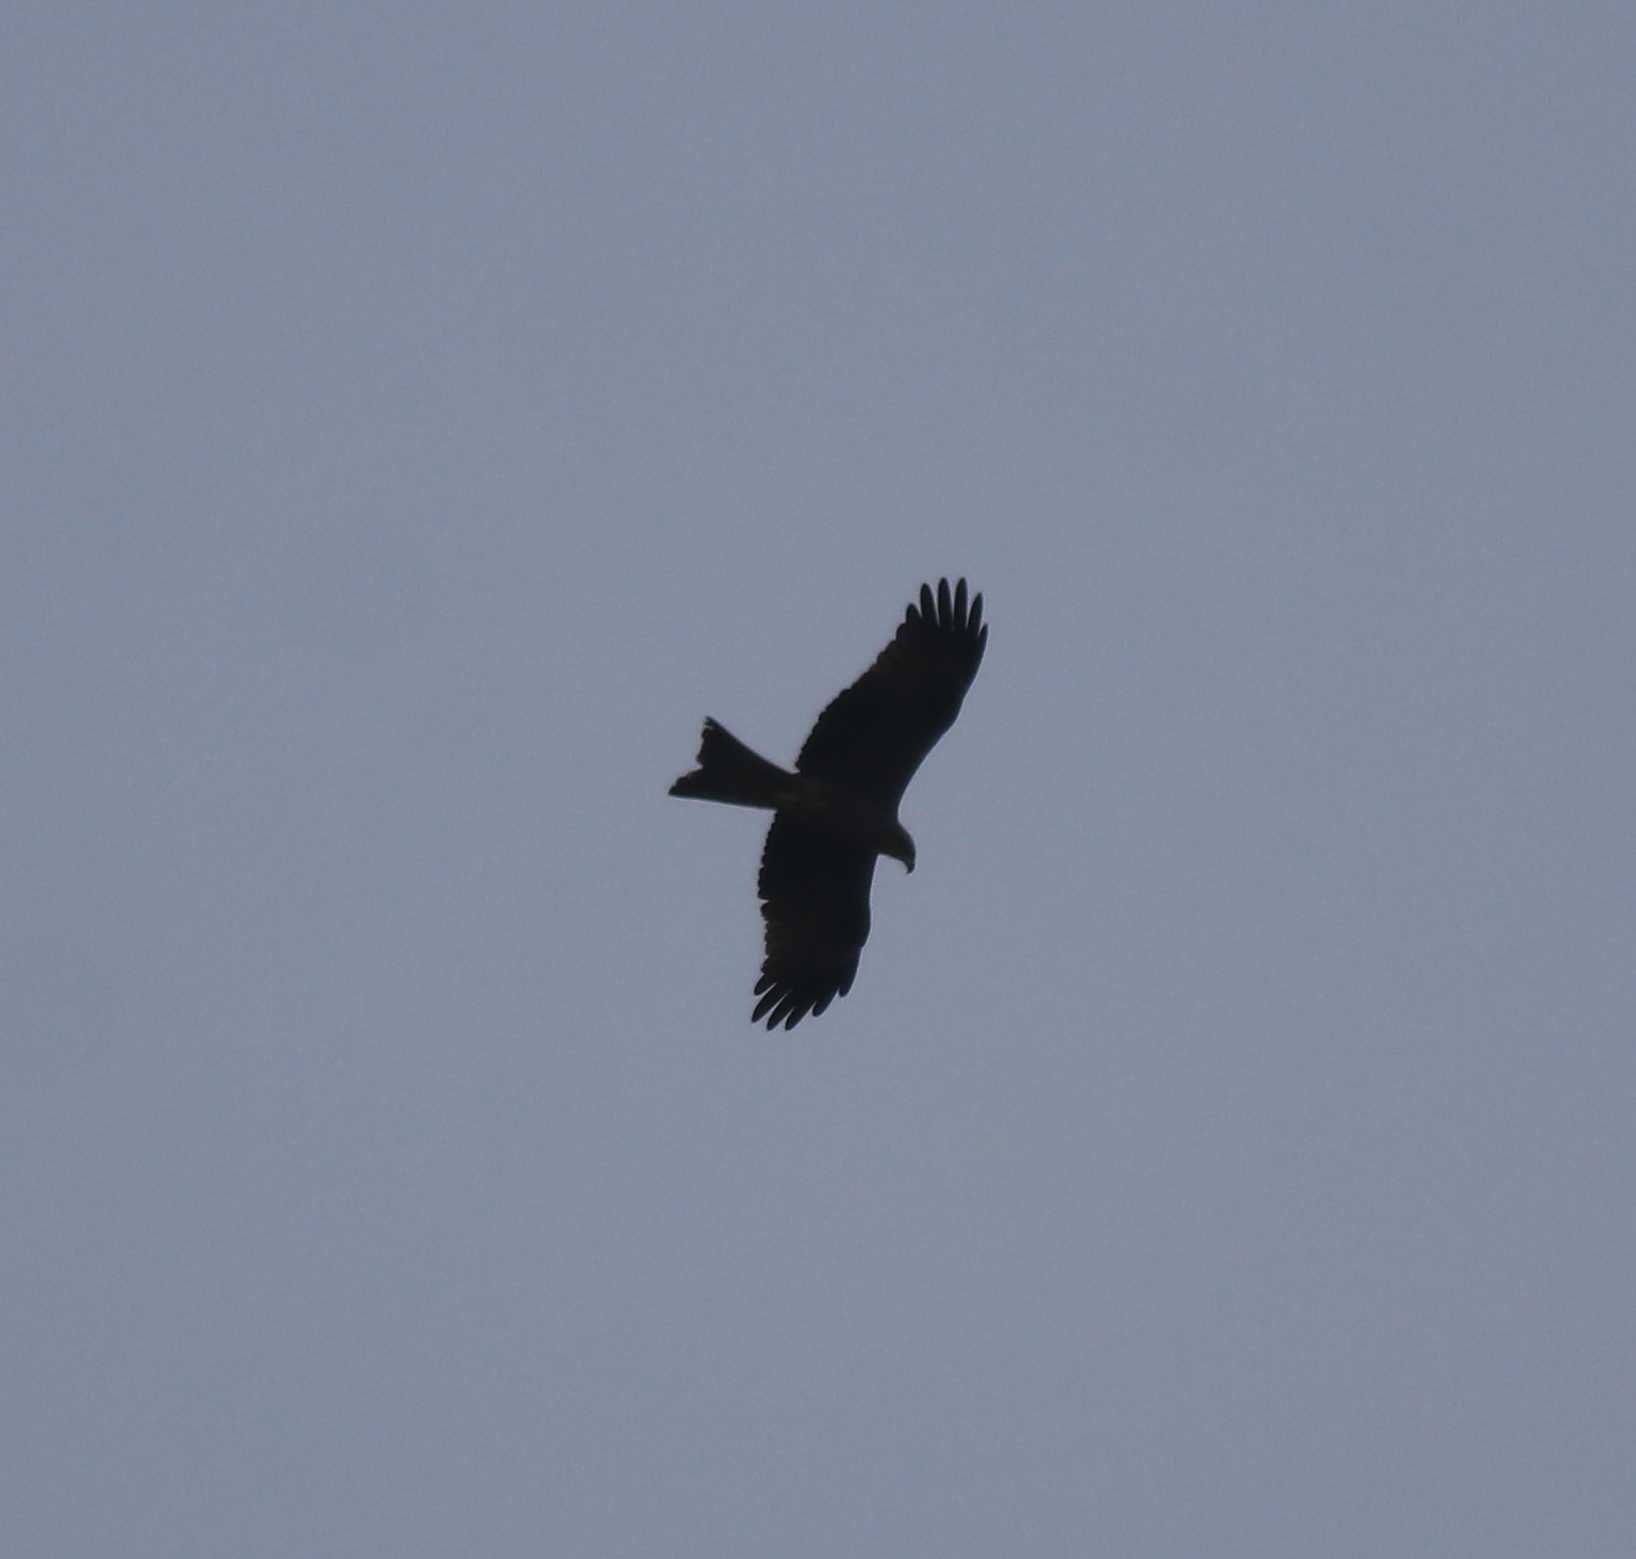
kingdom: Animalia
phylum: Chordata
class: Aves
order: Accipitriformes
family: Accipitridae
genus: Milvus
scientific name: Milvus migrans
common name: Black kite
